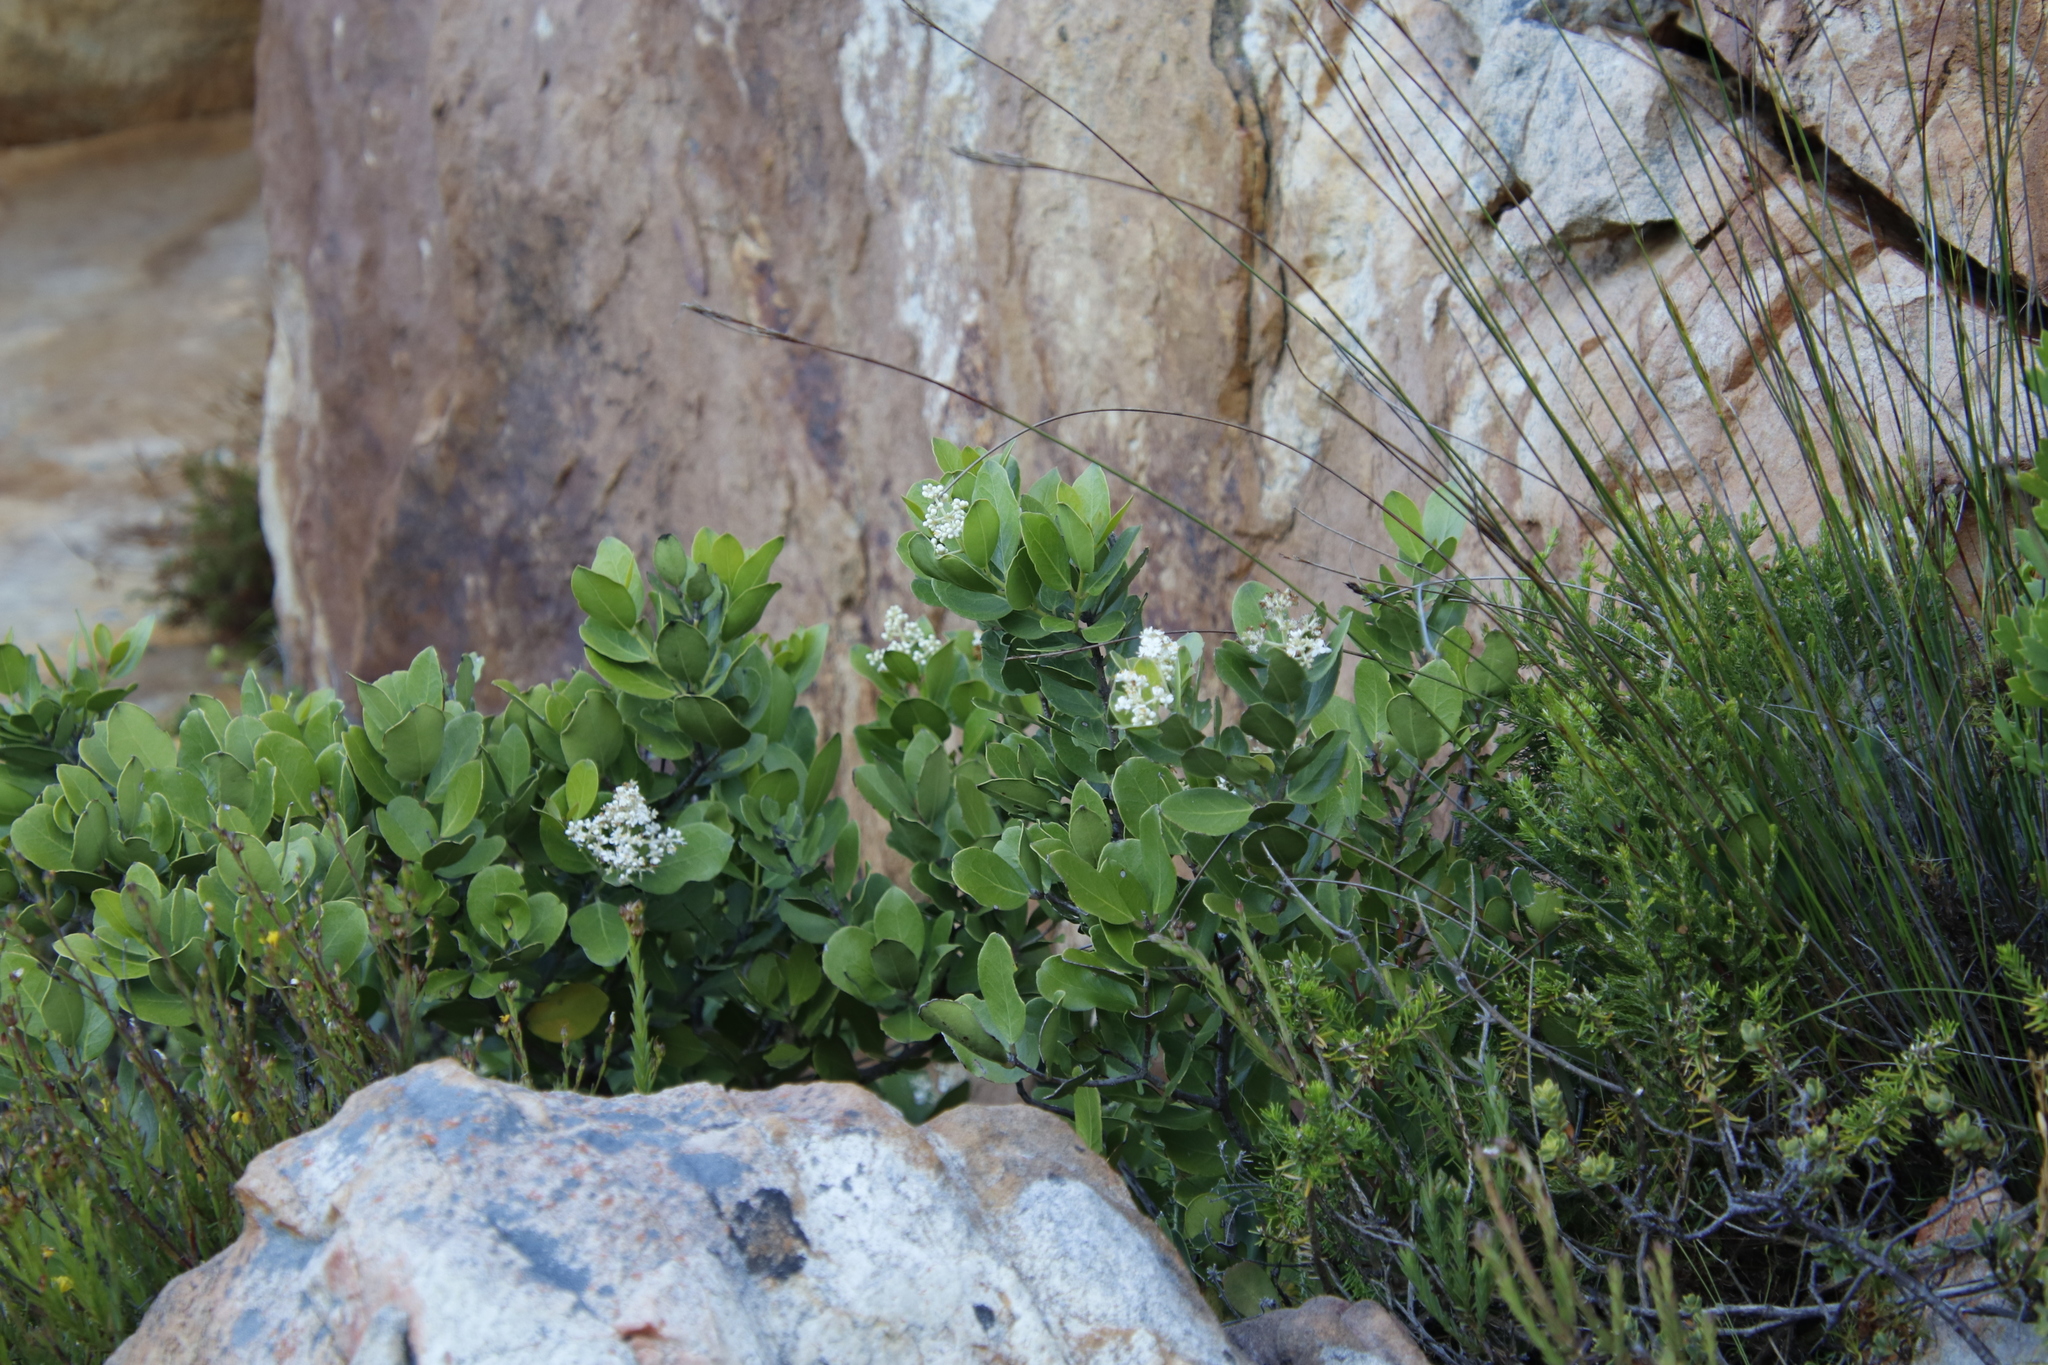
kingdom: Plantae
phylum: Tracheophyta
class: Magnoliopsida
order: Lamiales
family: Oleaceae
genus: Olea
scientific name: Olea capensis
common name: Black ironwood
